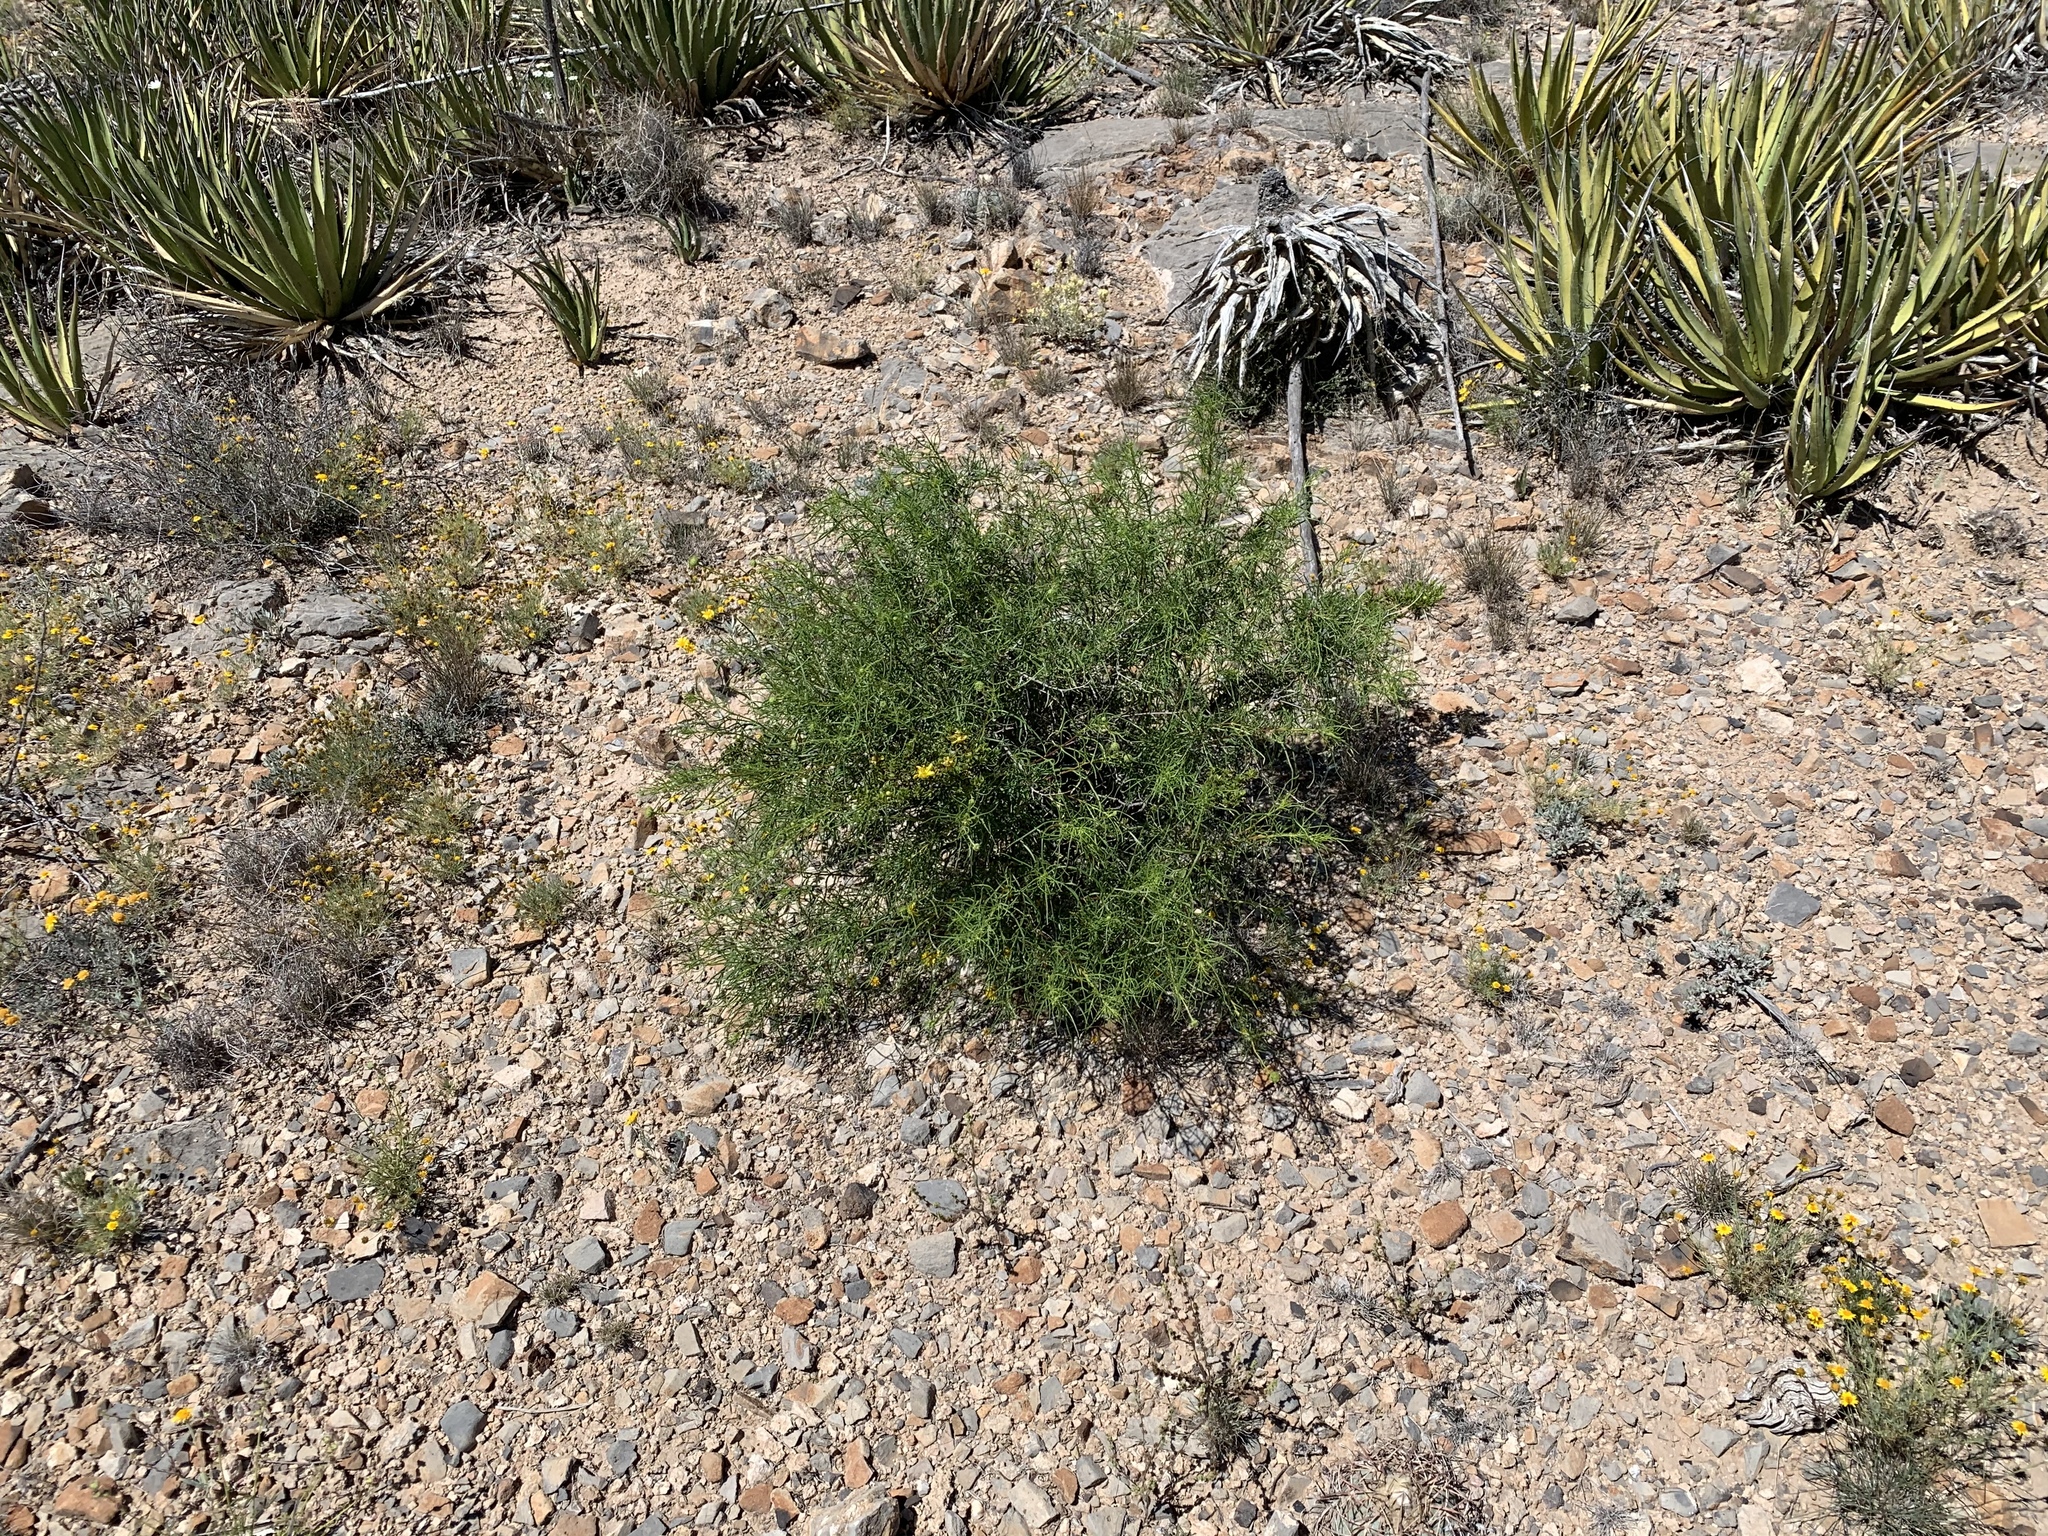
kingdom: Plantae
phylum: Tracheophyta
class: Magnoliopsida
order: Asterales
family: Asteraceae
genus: Sidneya
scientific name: Sidneya tenuifolia
